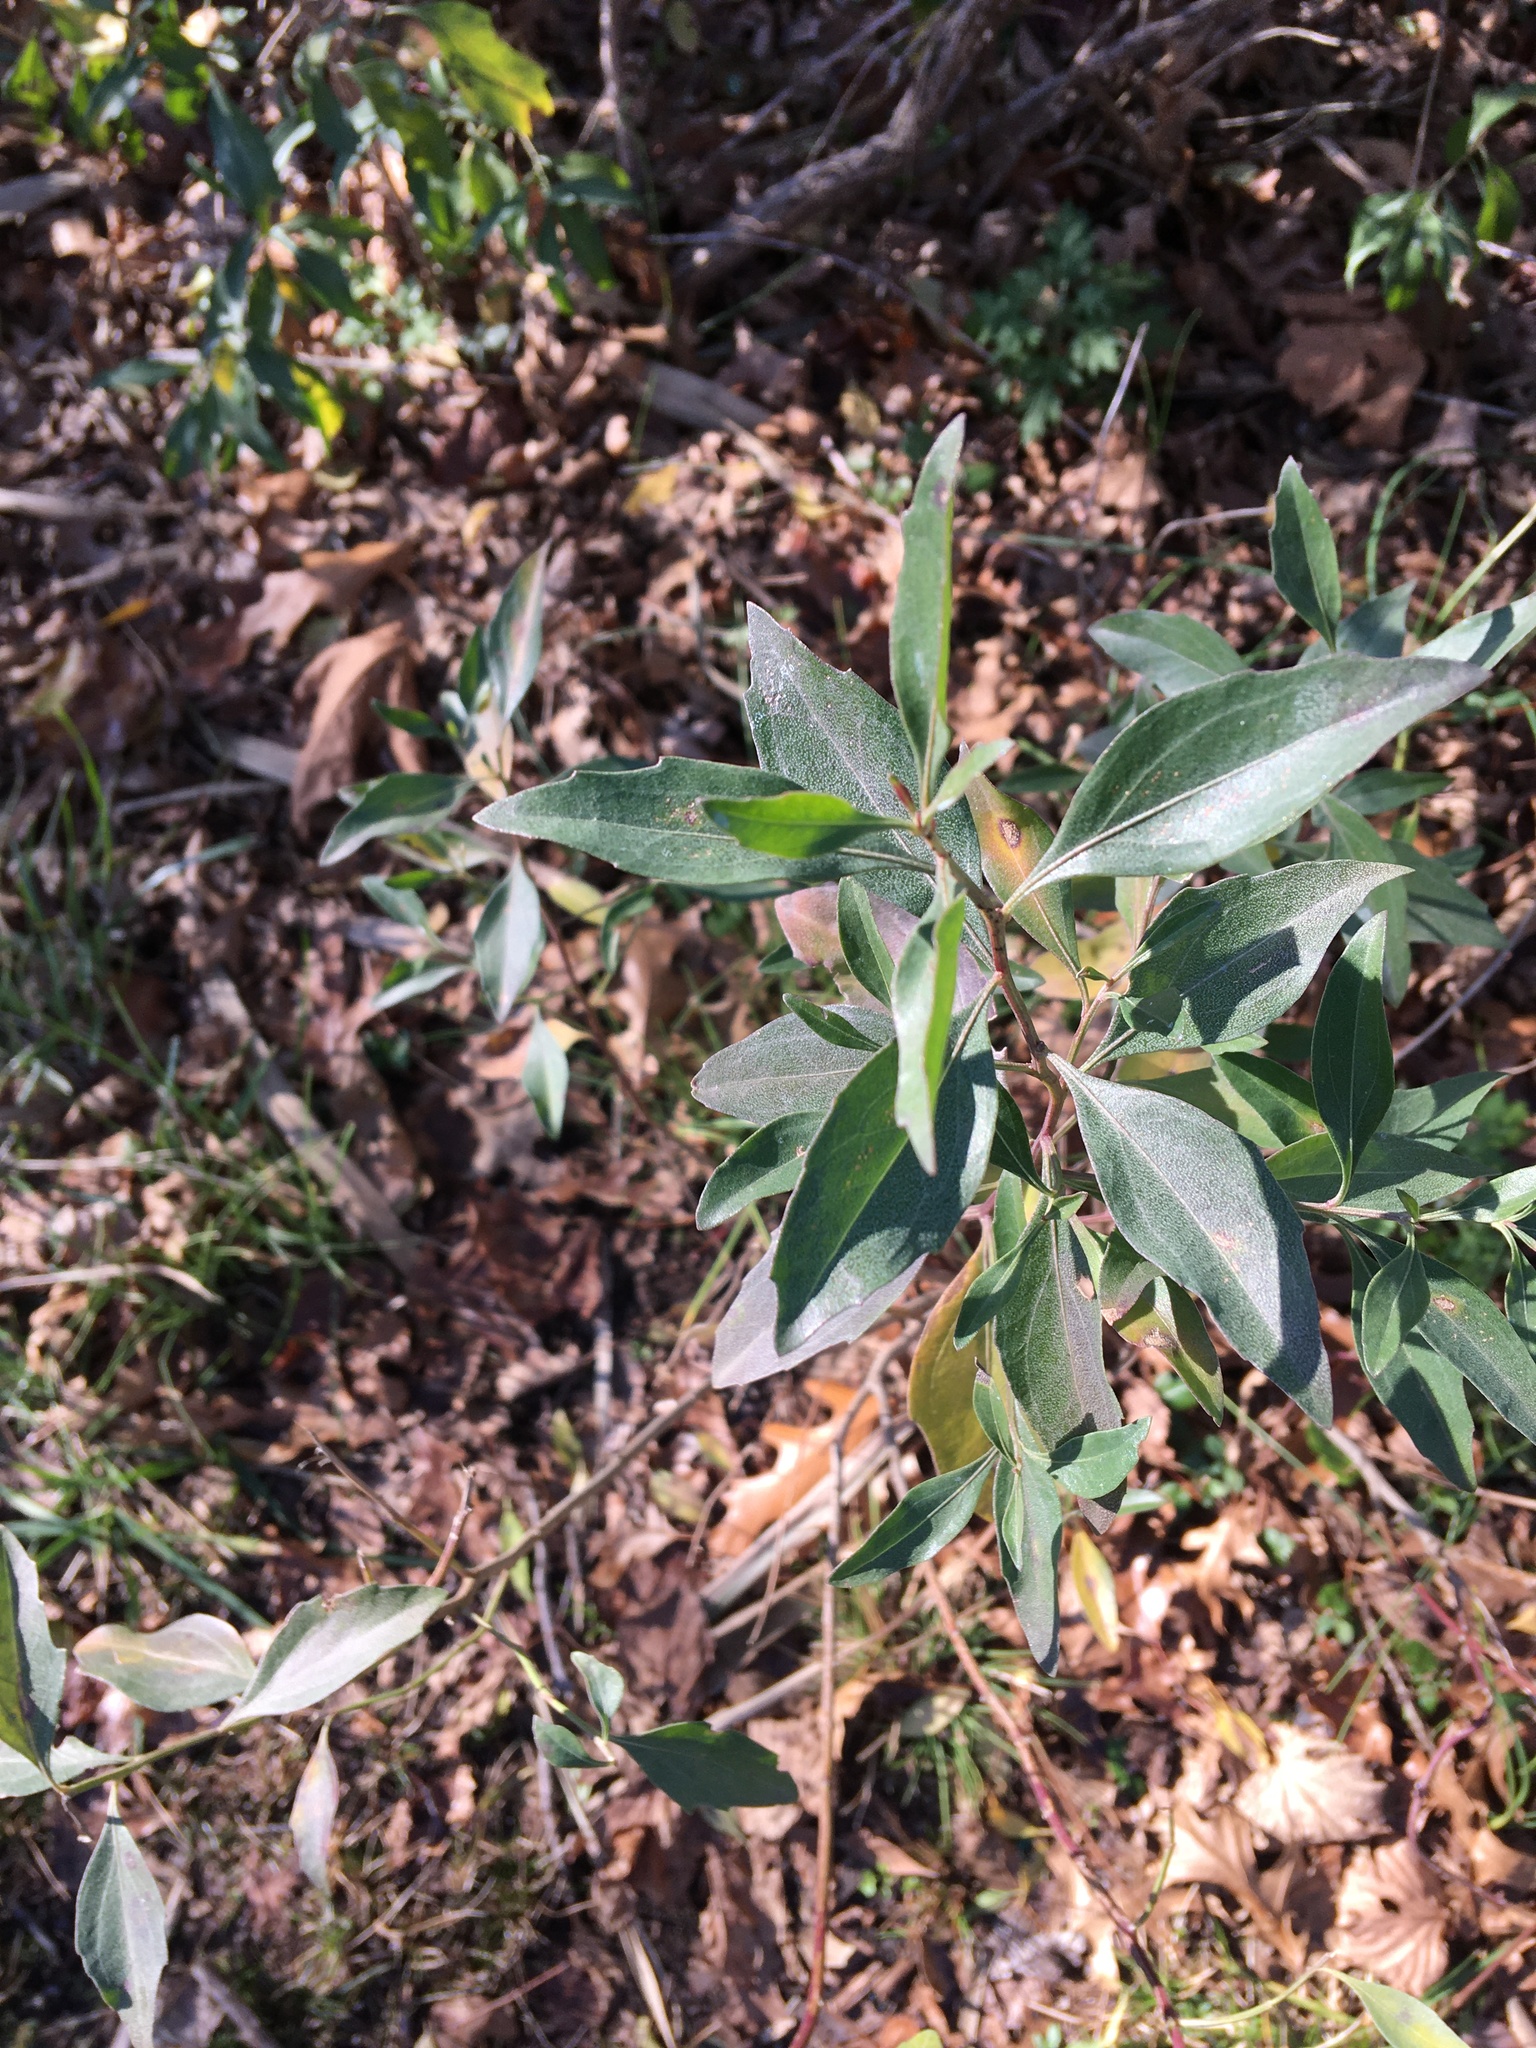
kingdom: Plantae
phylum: Tracheophyta
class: Magnoliopsida
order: Asterales
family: Asteraceae
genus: Baccharis
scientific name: Baccharis halimifolia
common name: Eastern baccharis
